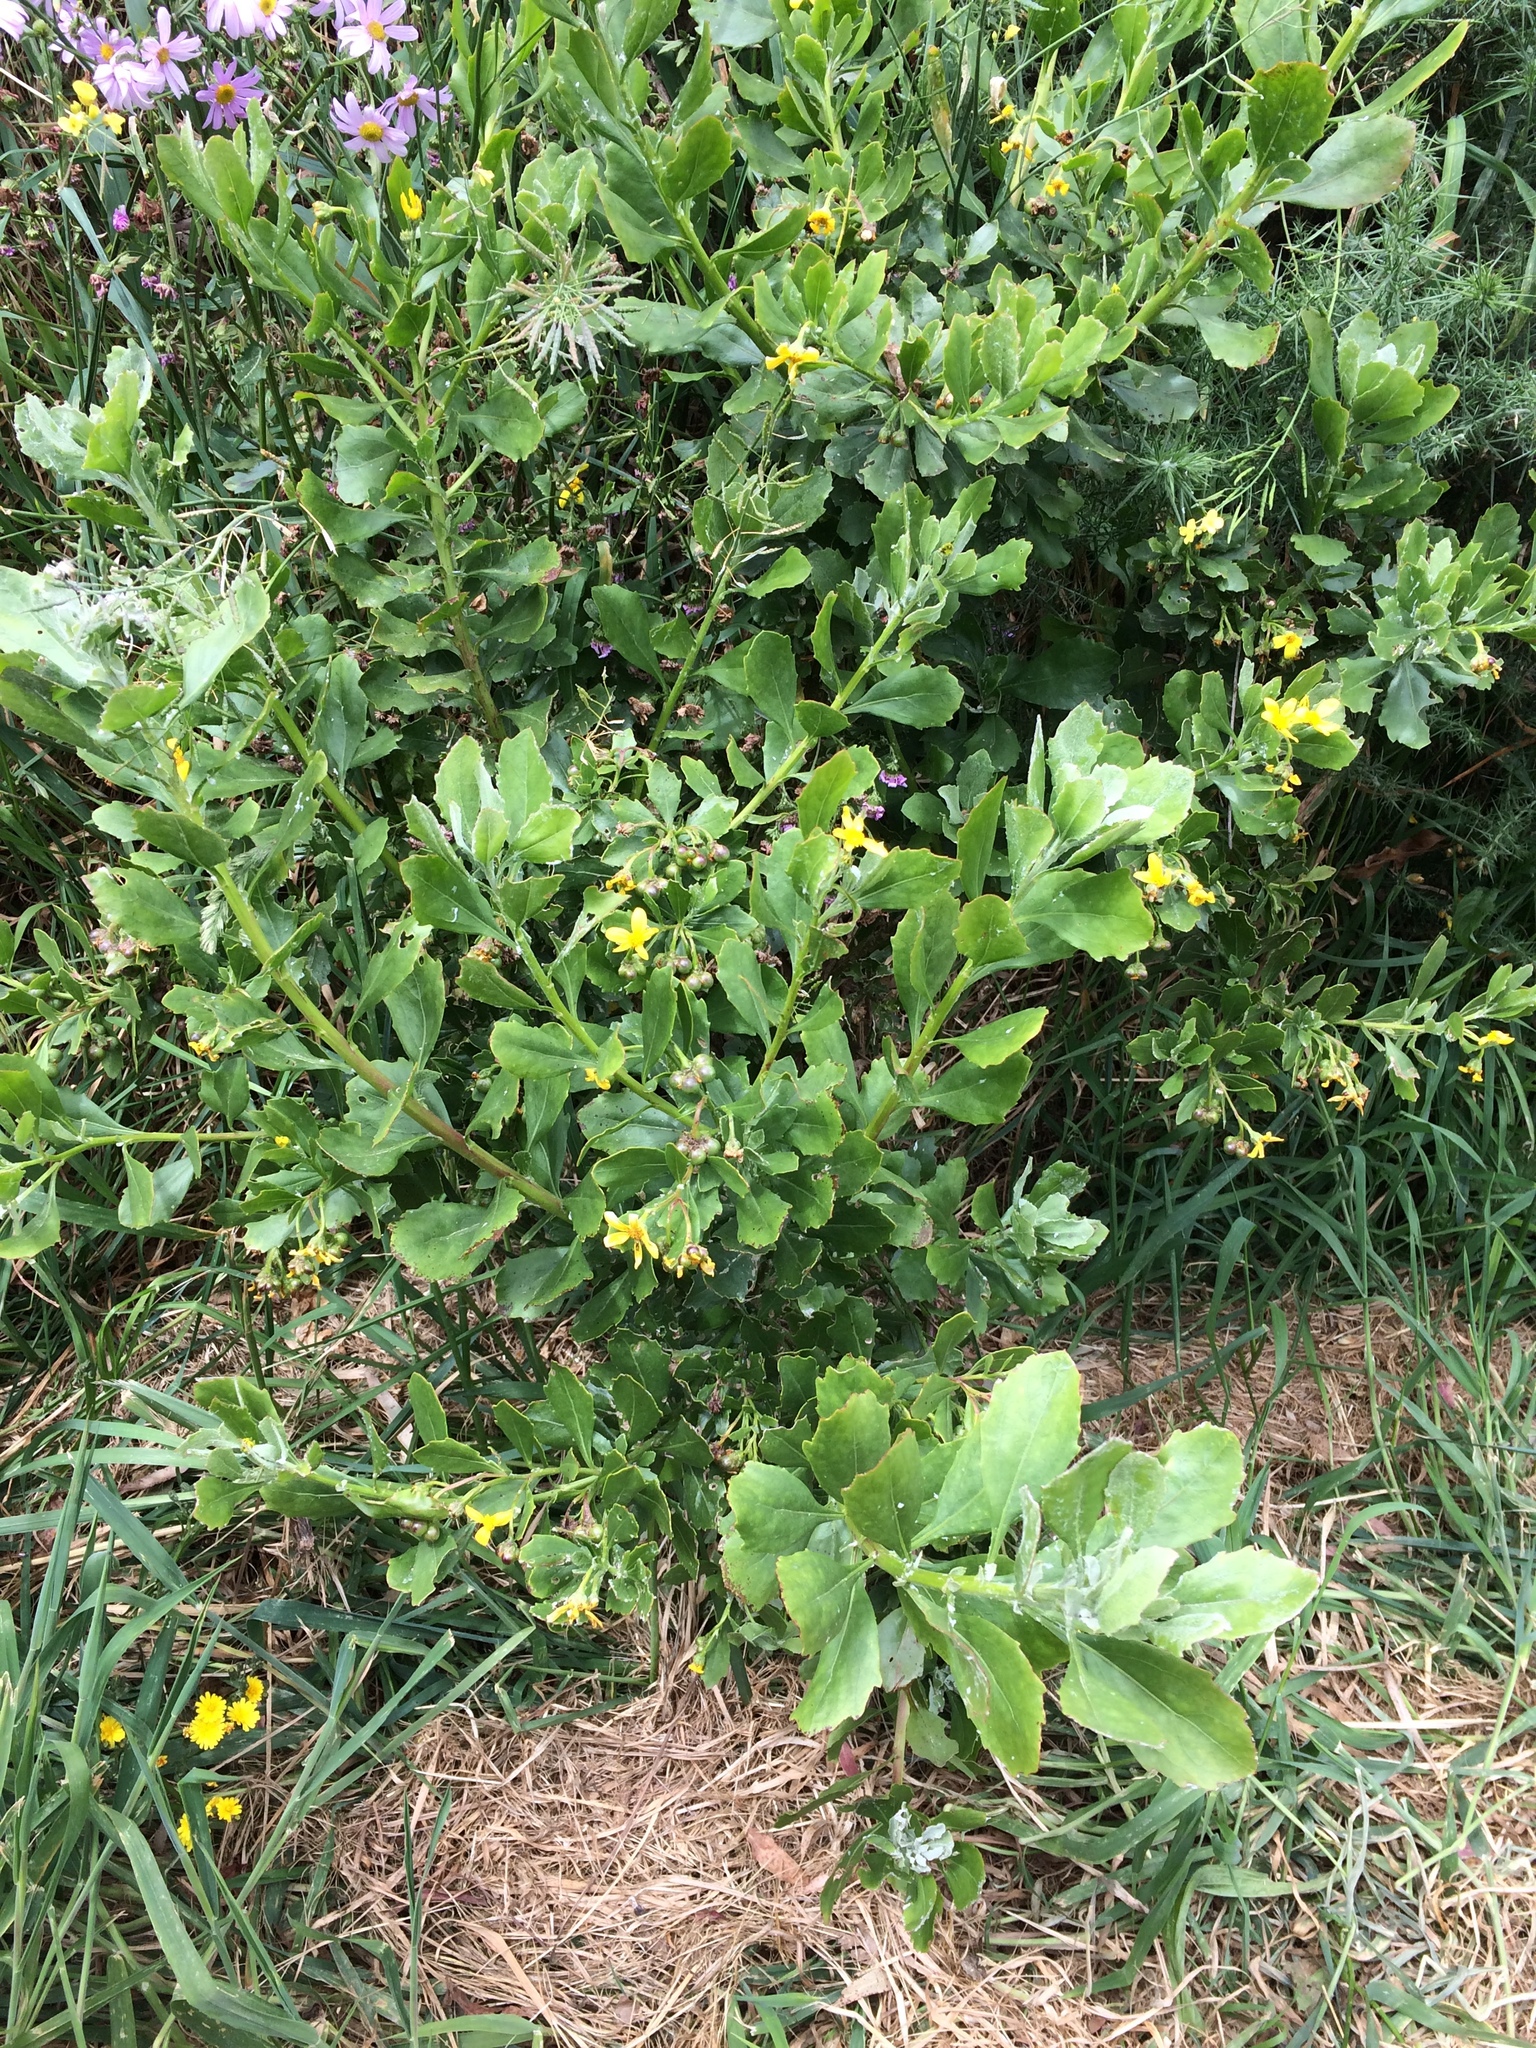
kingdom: Plantae
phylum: Tracheophyta
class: Magnoliopsida
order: Asterales
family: Asteraceae
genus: Osteospermum
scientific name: Osteospermum moniliferum
